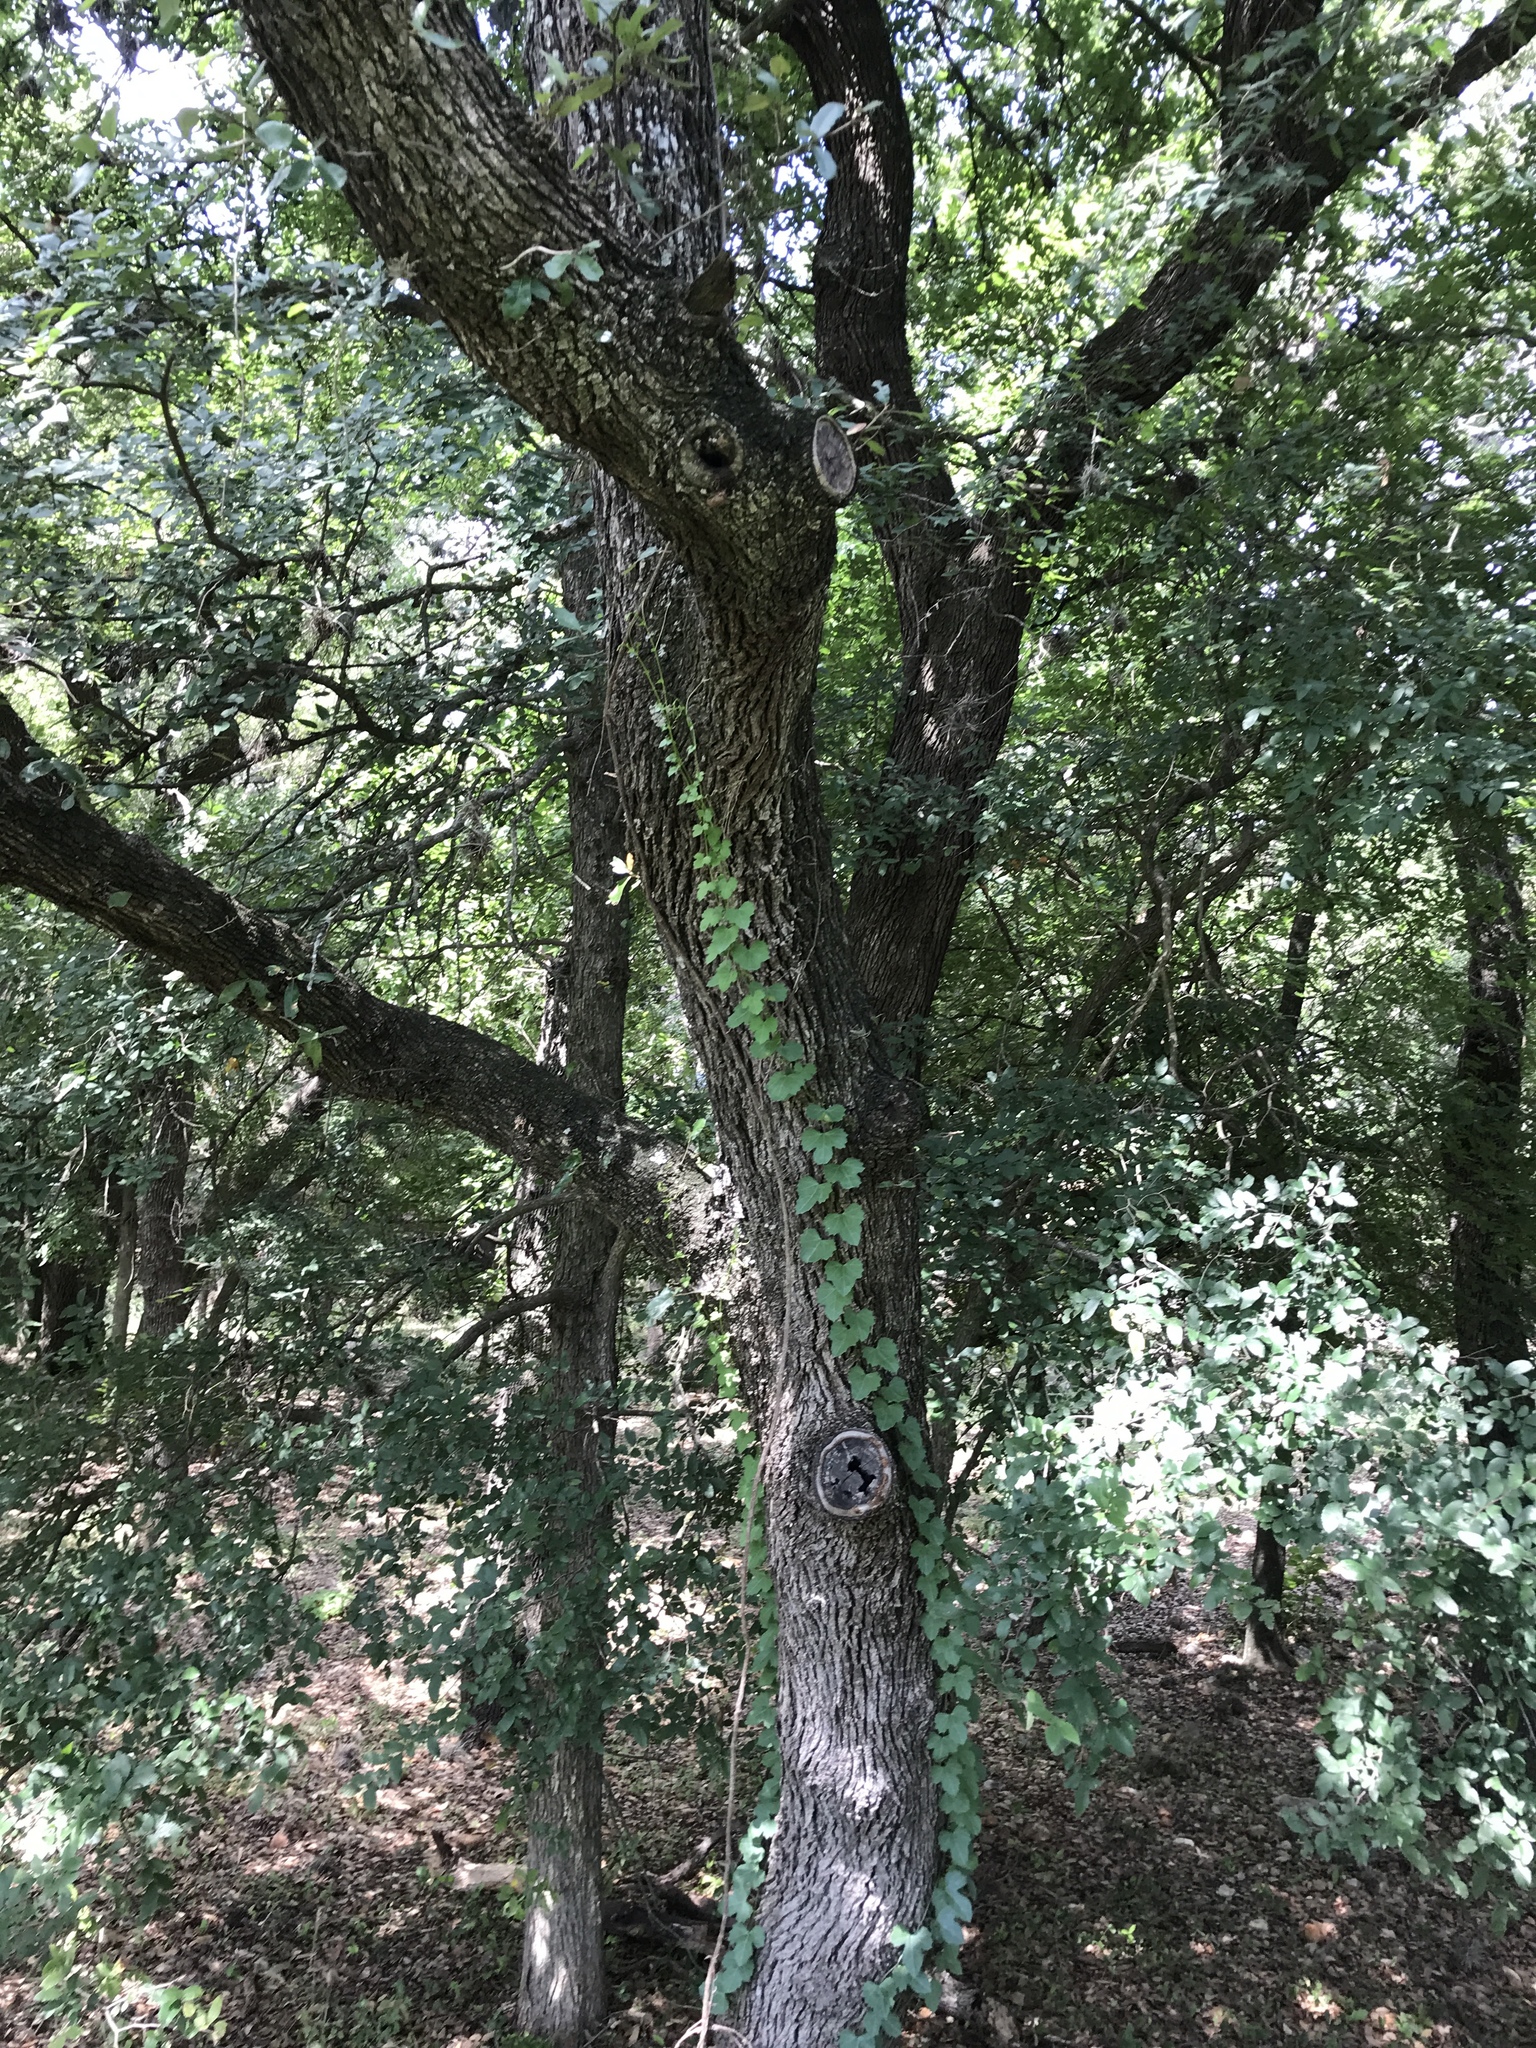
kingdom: Plantae
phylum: Tracheophyta
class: Magnoliopsida
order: Vitales
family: Vitaceae
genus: Cissus
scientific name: Cissus trifoliata
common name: Vine-sorrel
